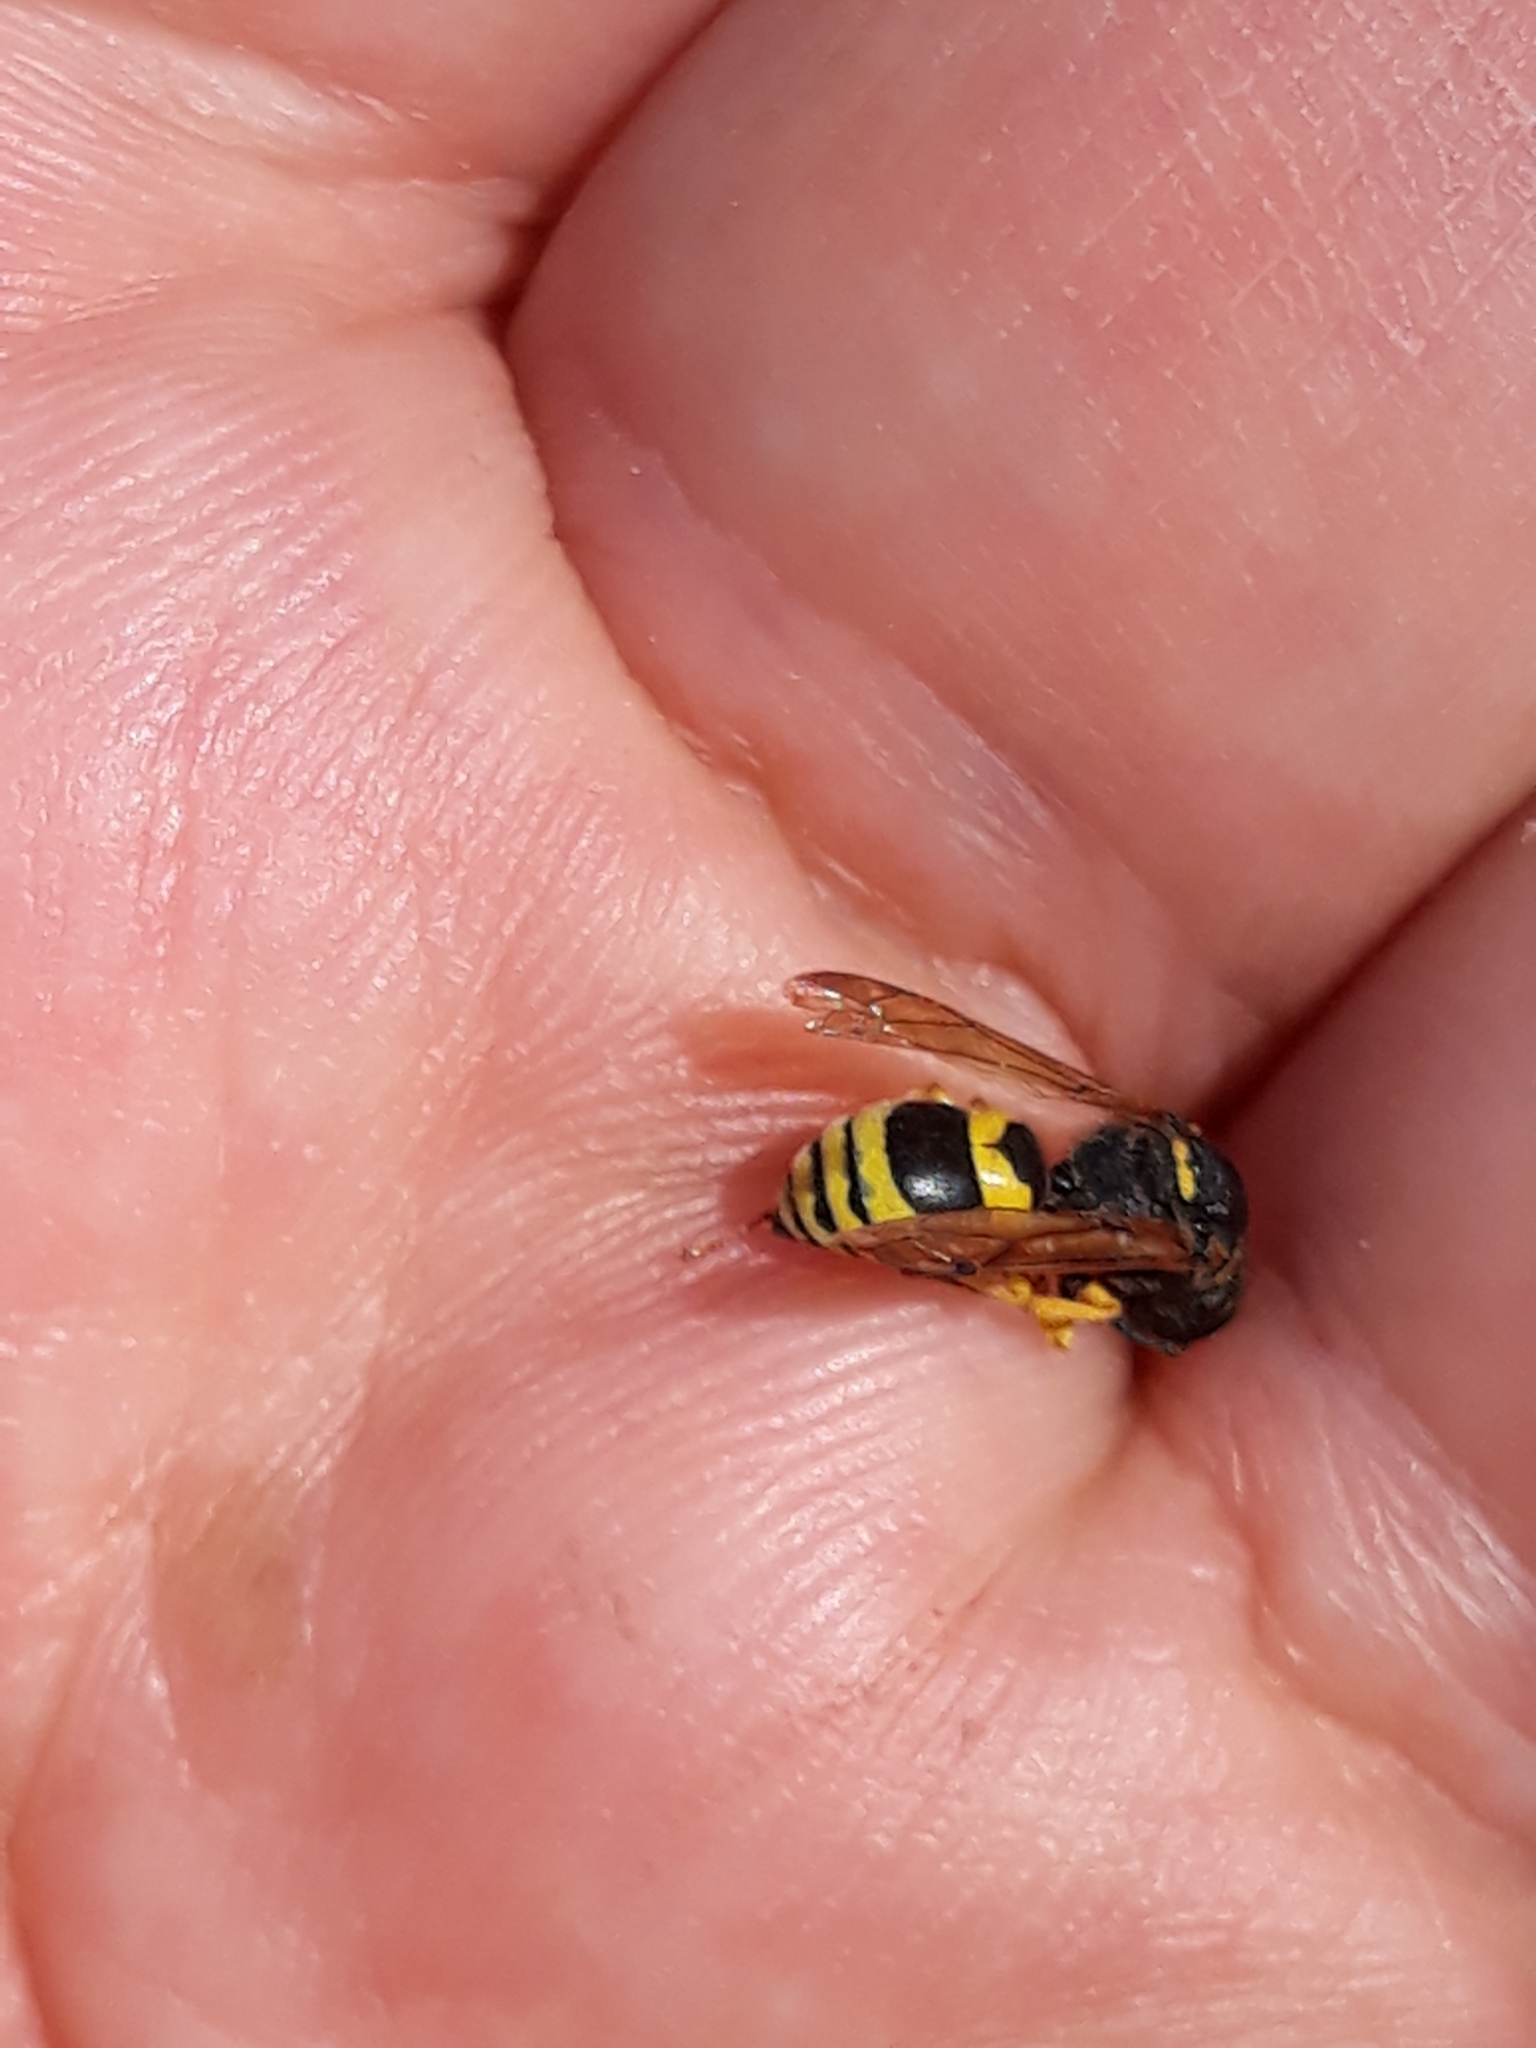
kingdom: Animalia
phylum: Arthropoda
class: Insecta
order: Hymenoptera
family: Vespidae
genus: Odynerus
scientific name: Odynerus consobrinus
